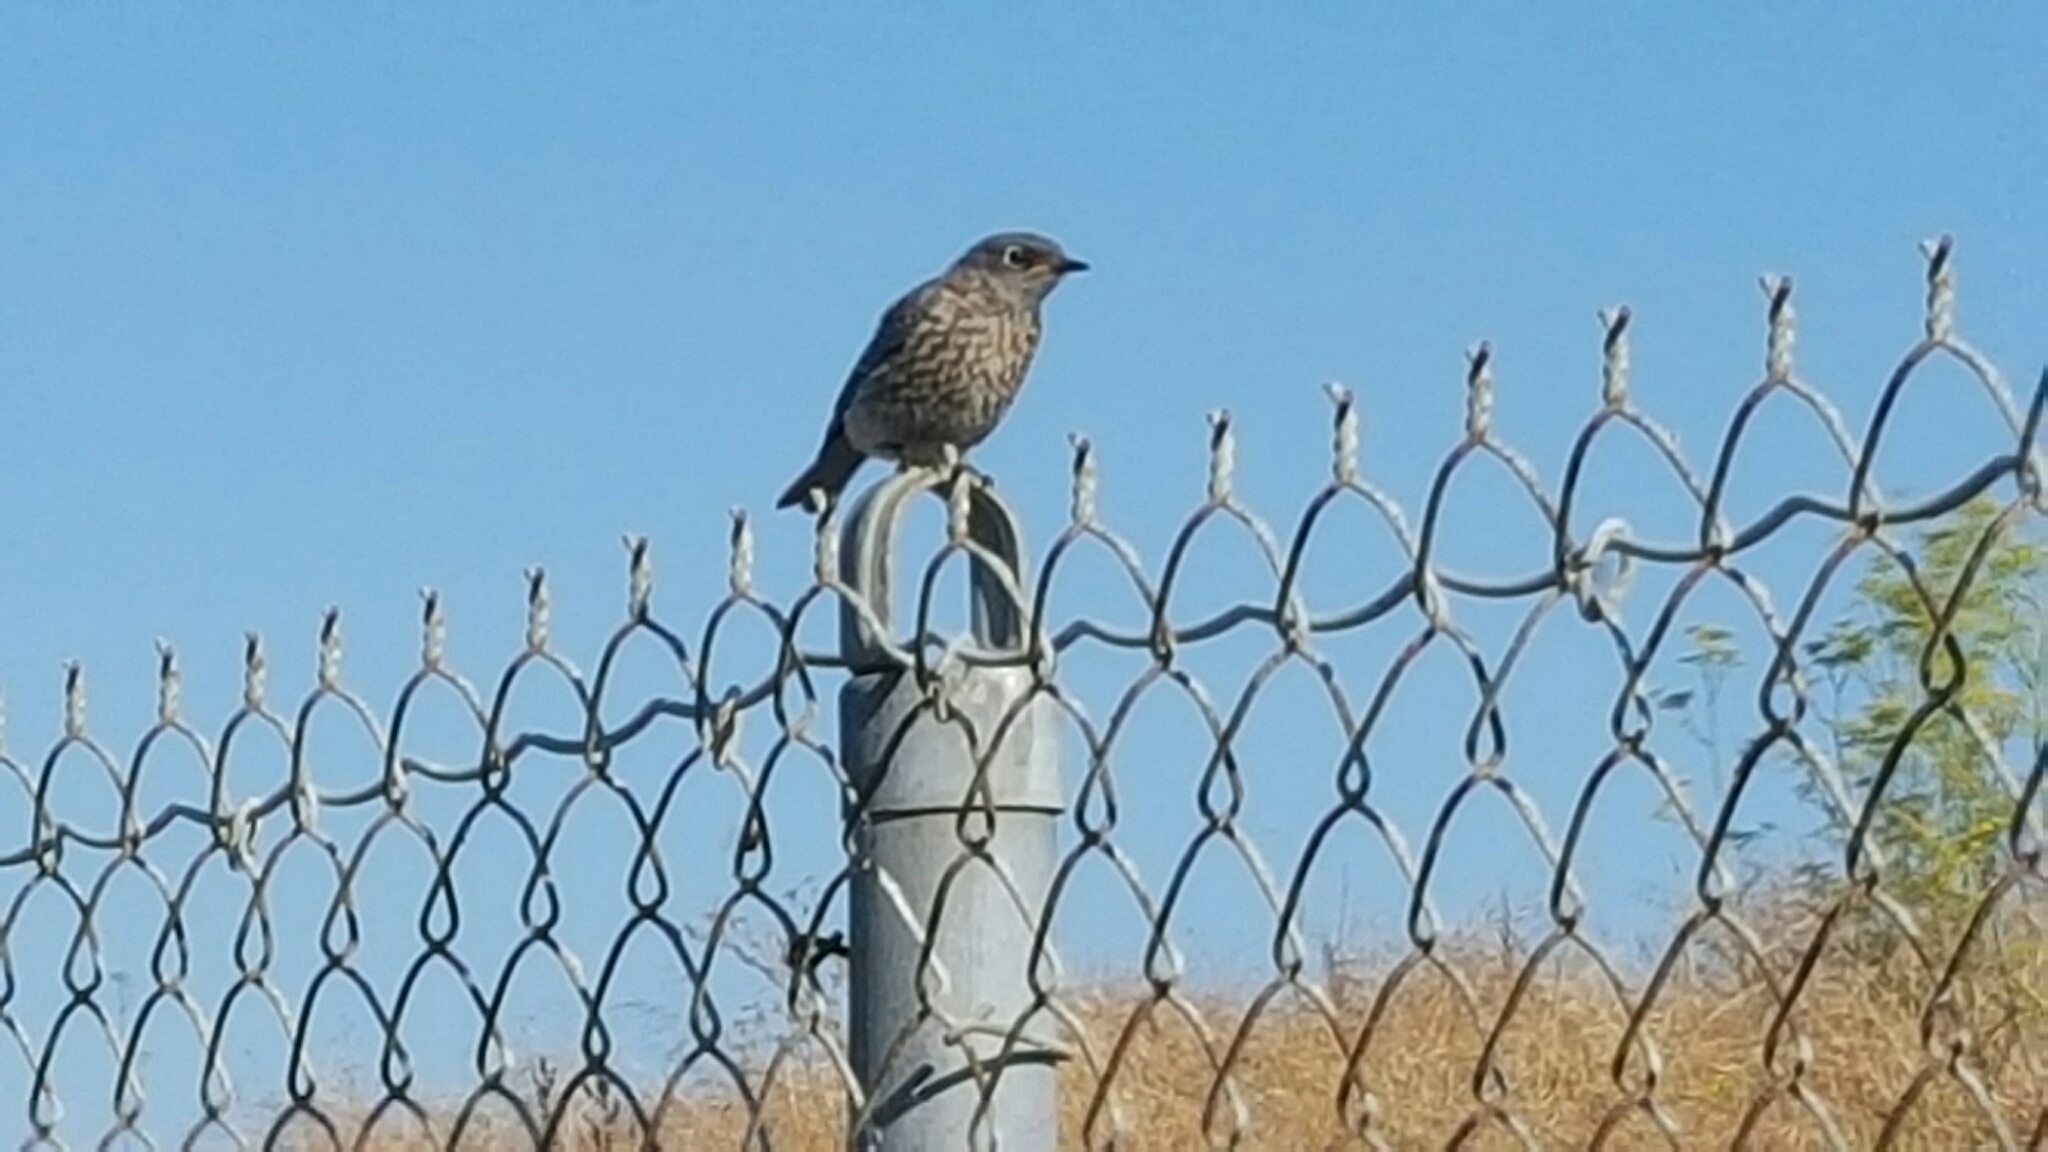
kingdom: Animalia
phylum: Chordata
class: Aves
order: Passeriformes
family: Turdidae
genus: Sialia
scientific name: Sialia mexicana
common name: Western bluebird
